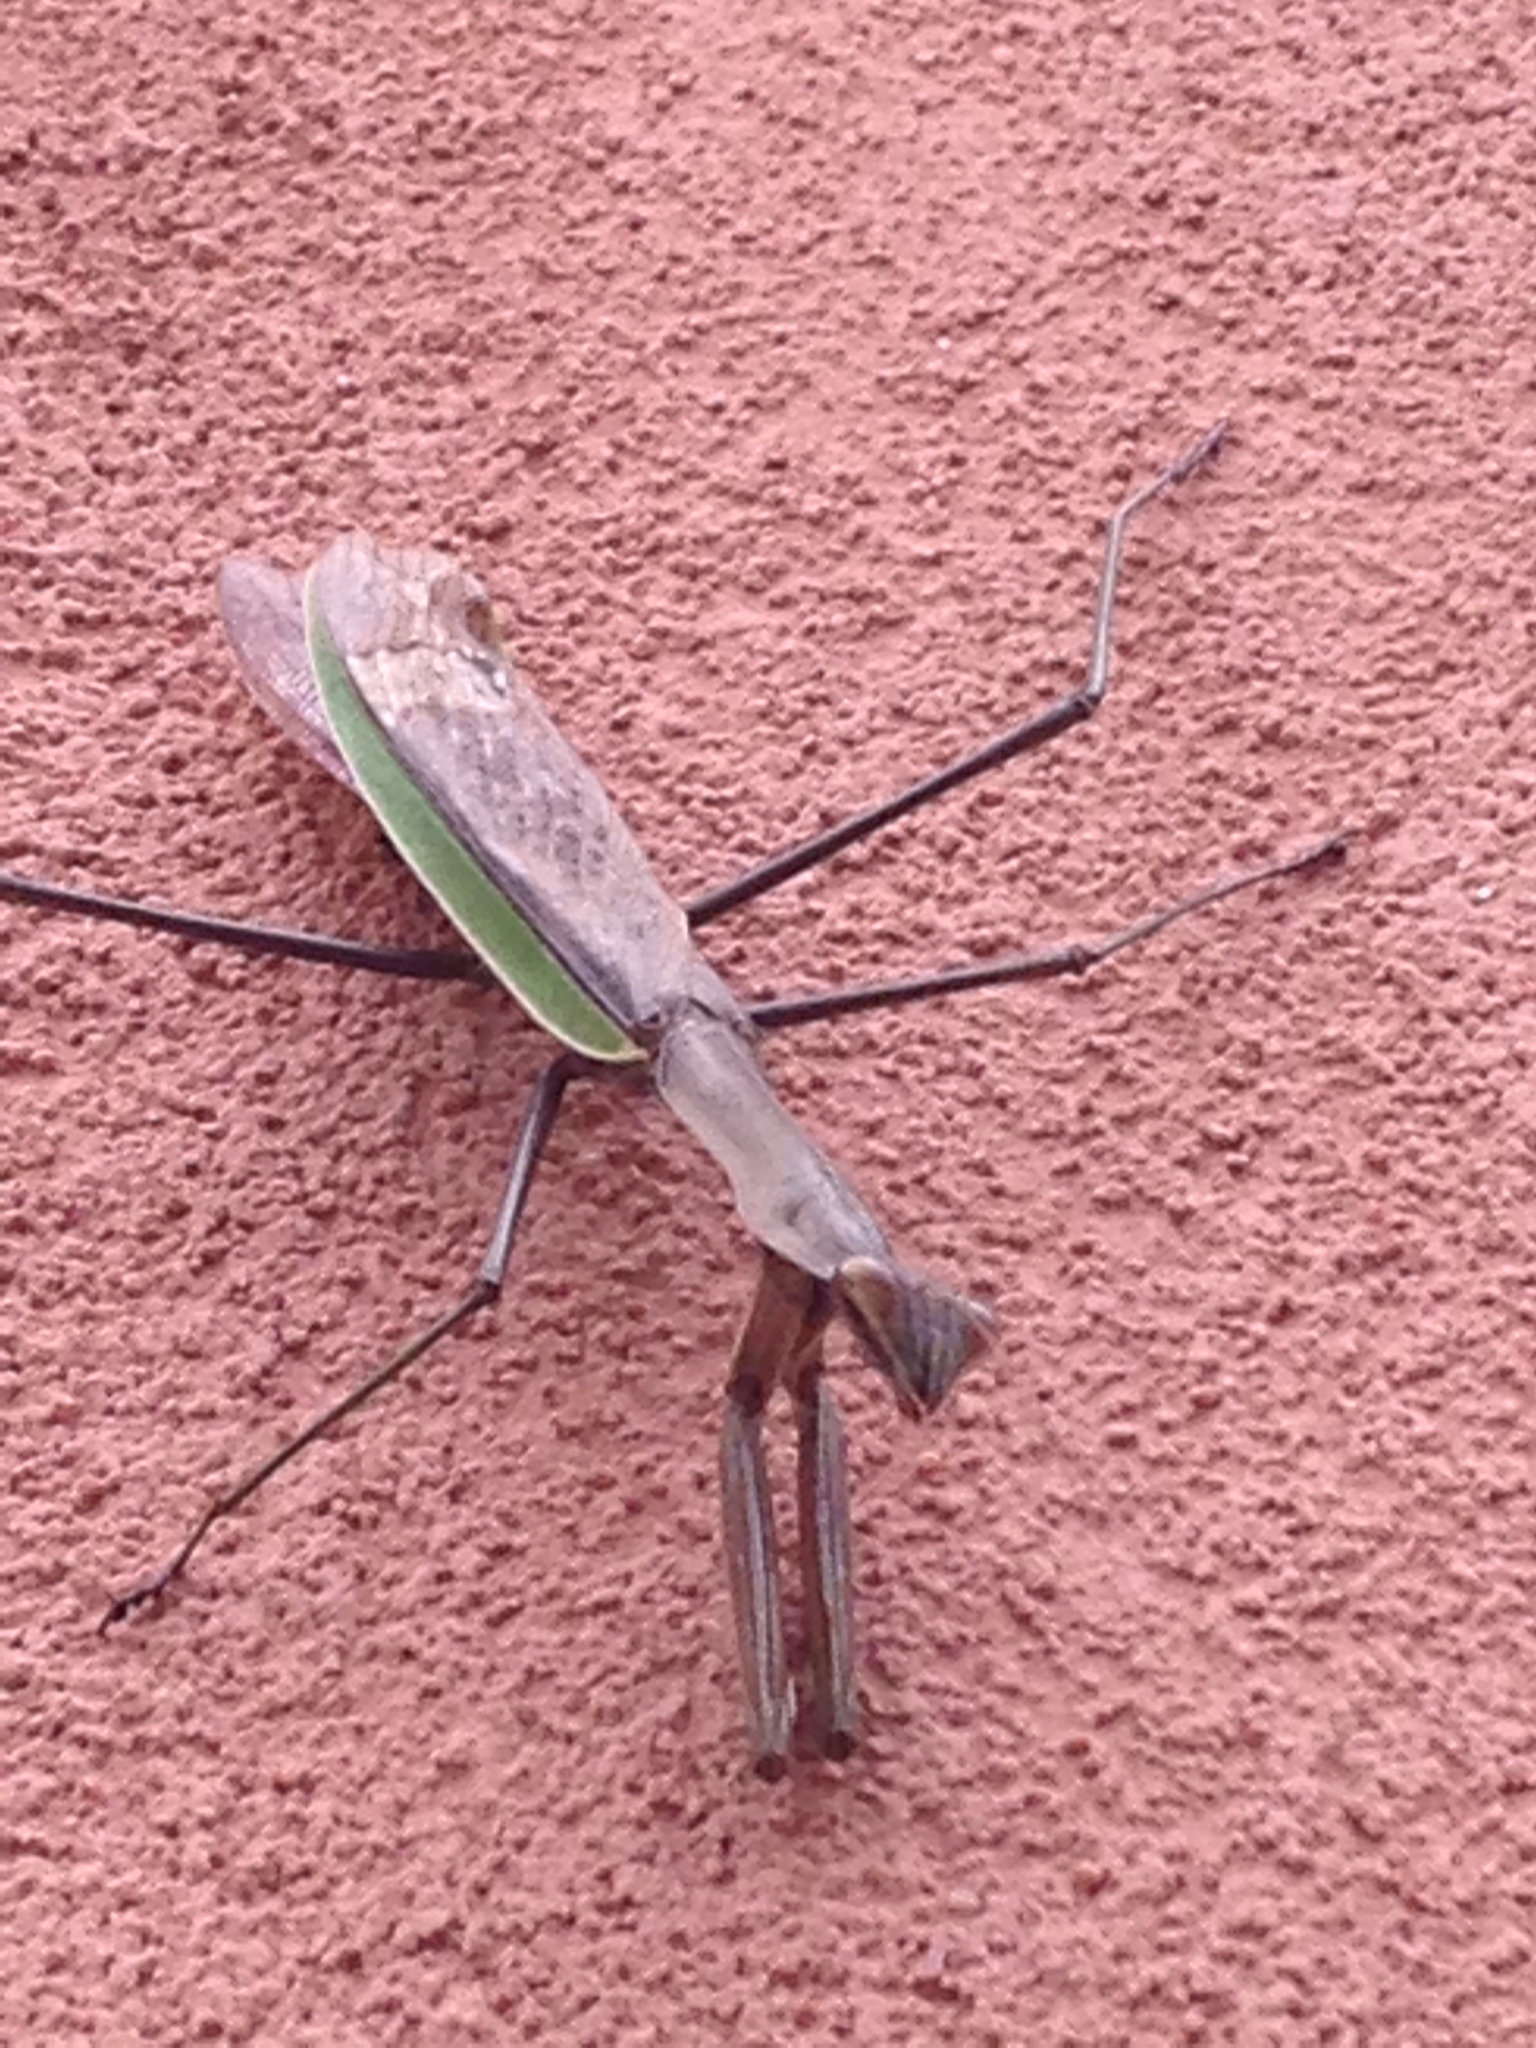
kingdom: Animalia
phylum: Arthropoda
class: Insecta
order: Mantodea
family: Mantidae
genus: Tenodera
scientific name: Tenodera sinensis
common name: Chinese mantis
